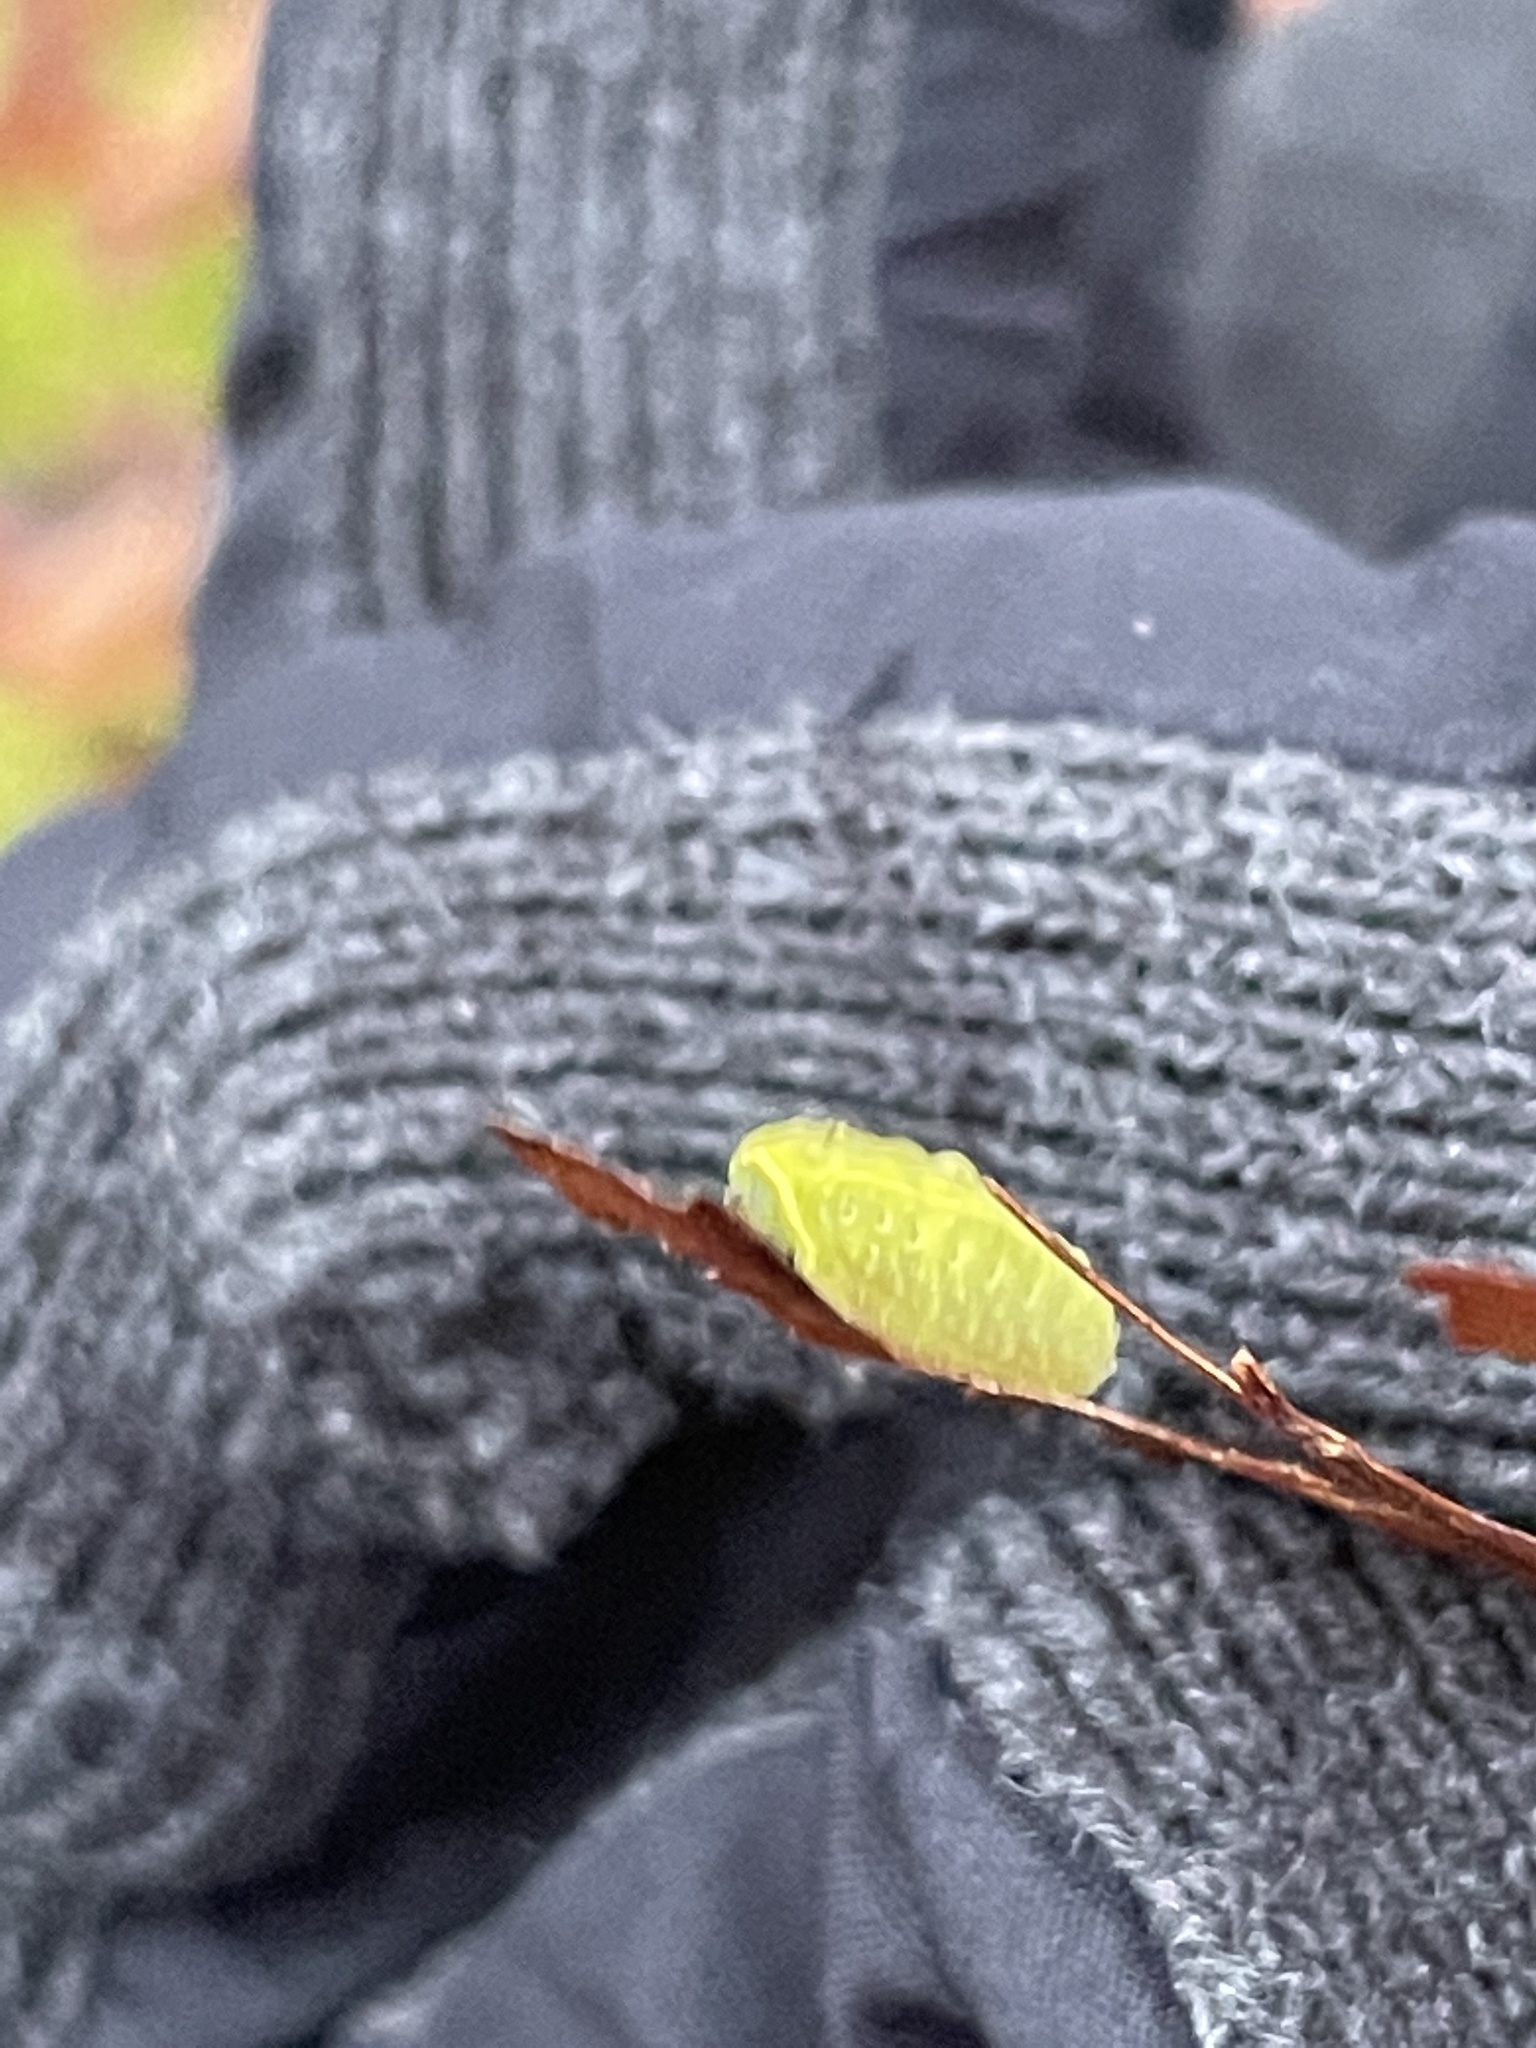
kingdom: Animalia
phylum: Arthropoda
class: Insecta
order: Lepidoptera
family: Limacodidae
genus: Apoda
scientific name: Apoda limacodes
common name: Festoon
